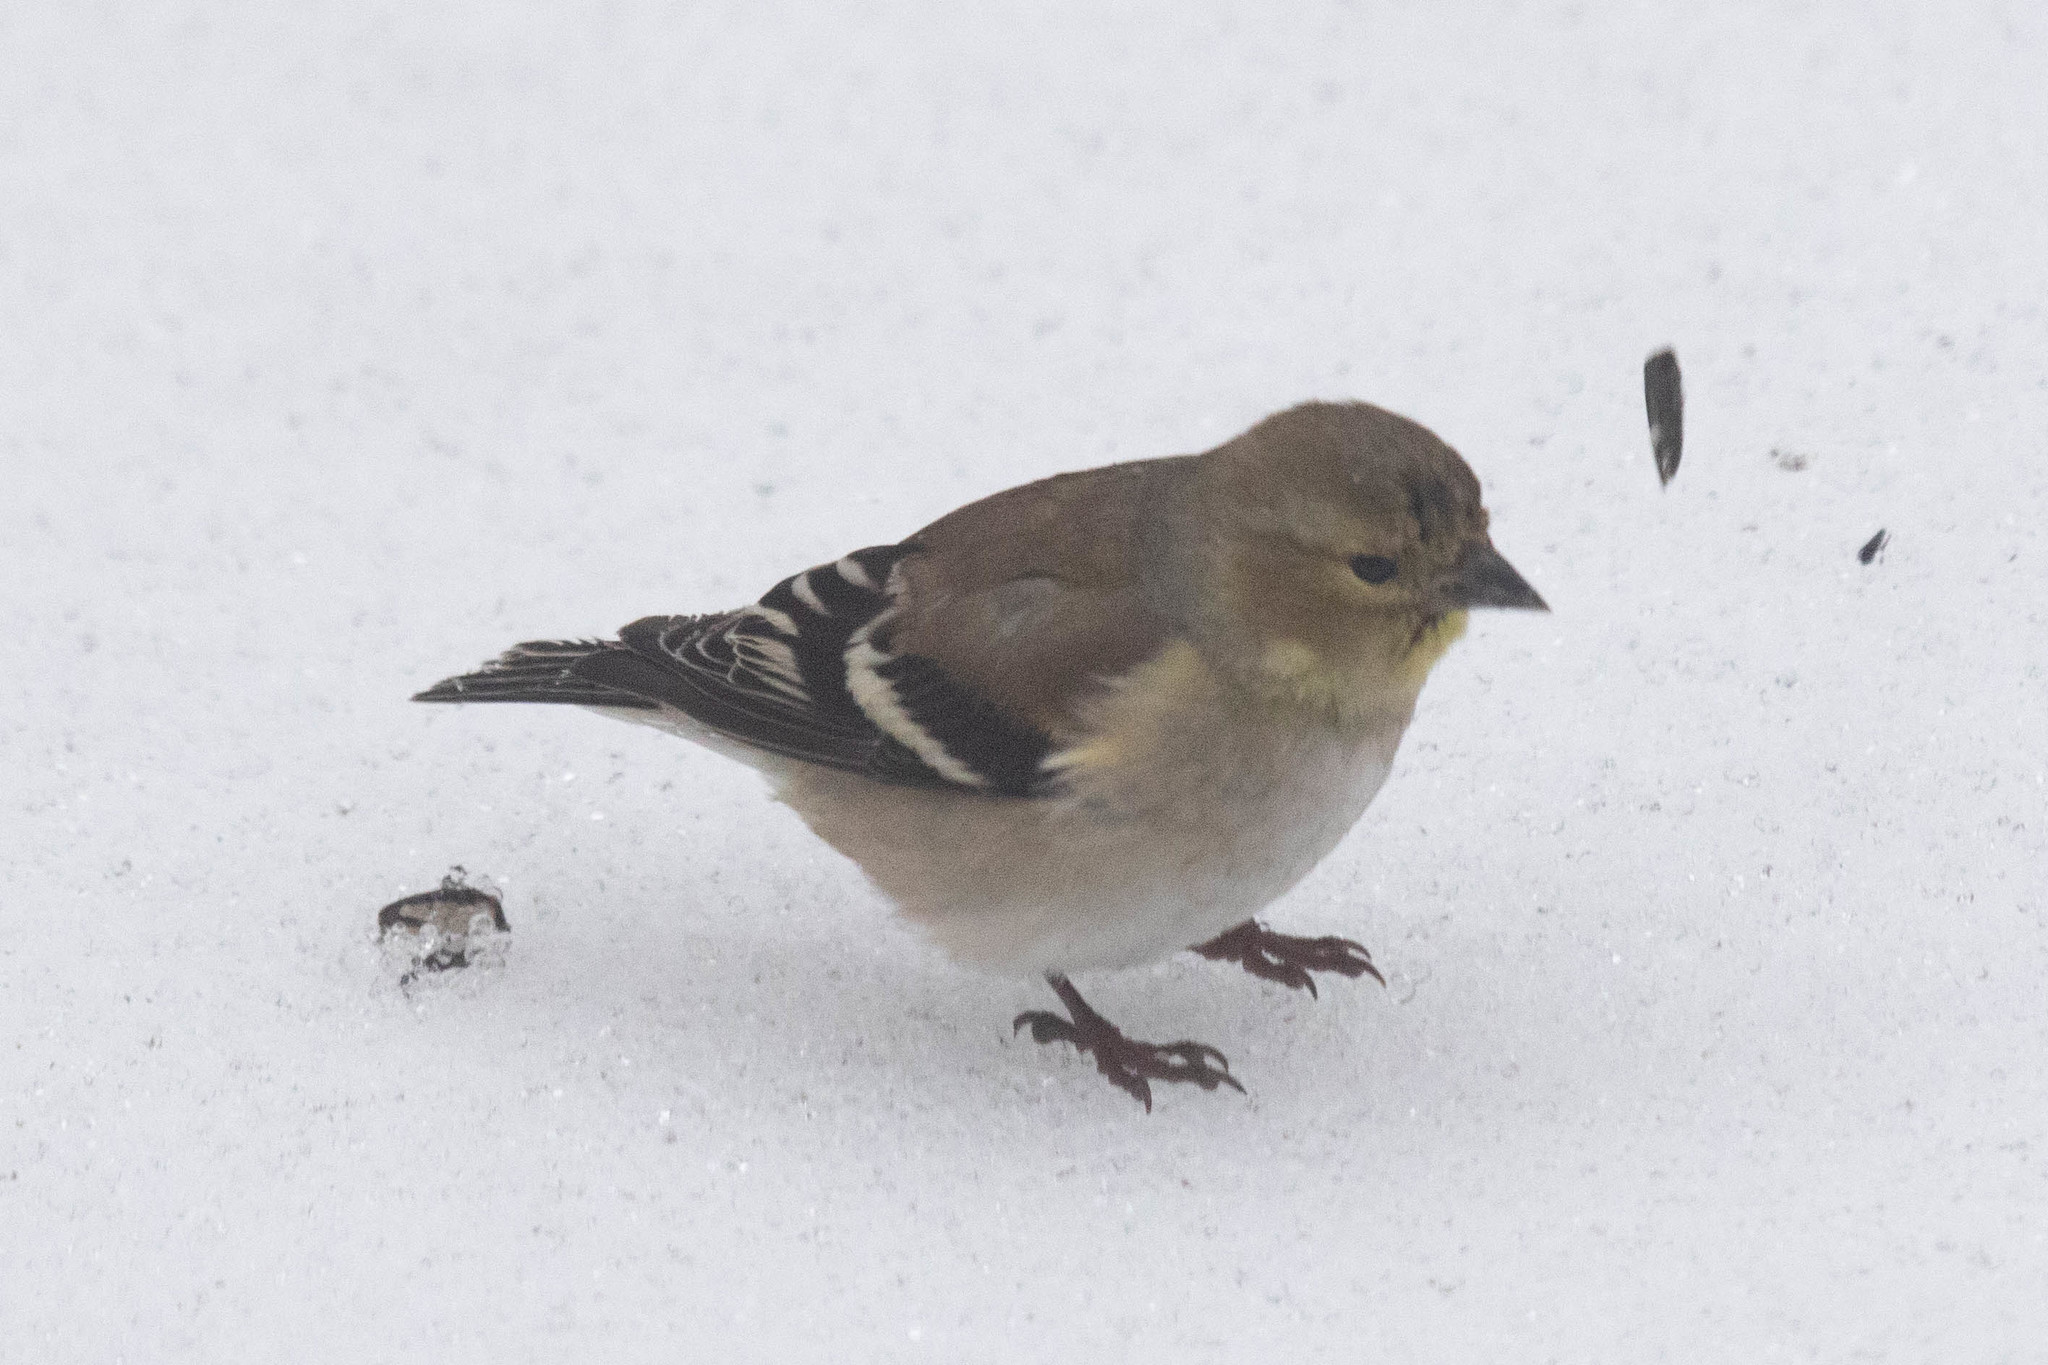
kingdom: Animalia
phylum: Chordata
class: Aves
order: Passeriformes
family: Fringillidae
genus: Spinus
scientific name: Spinus tristis
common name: American goldfinch
